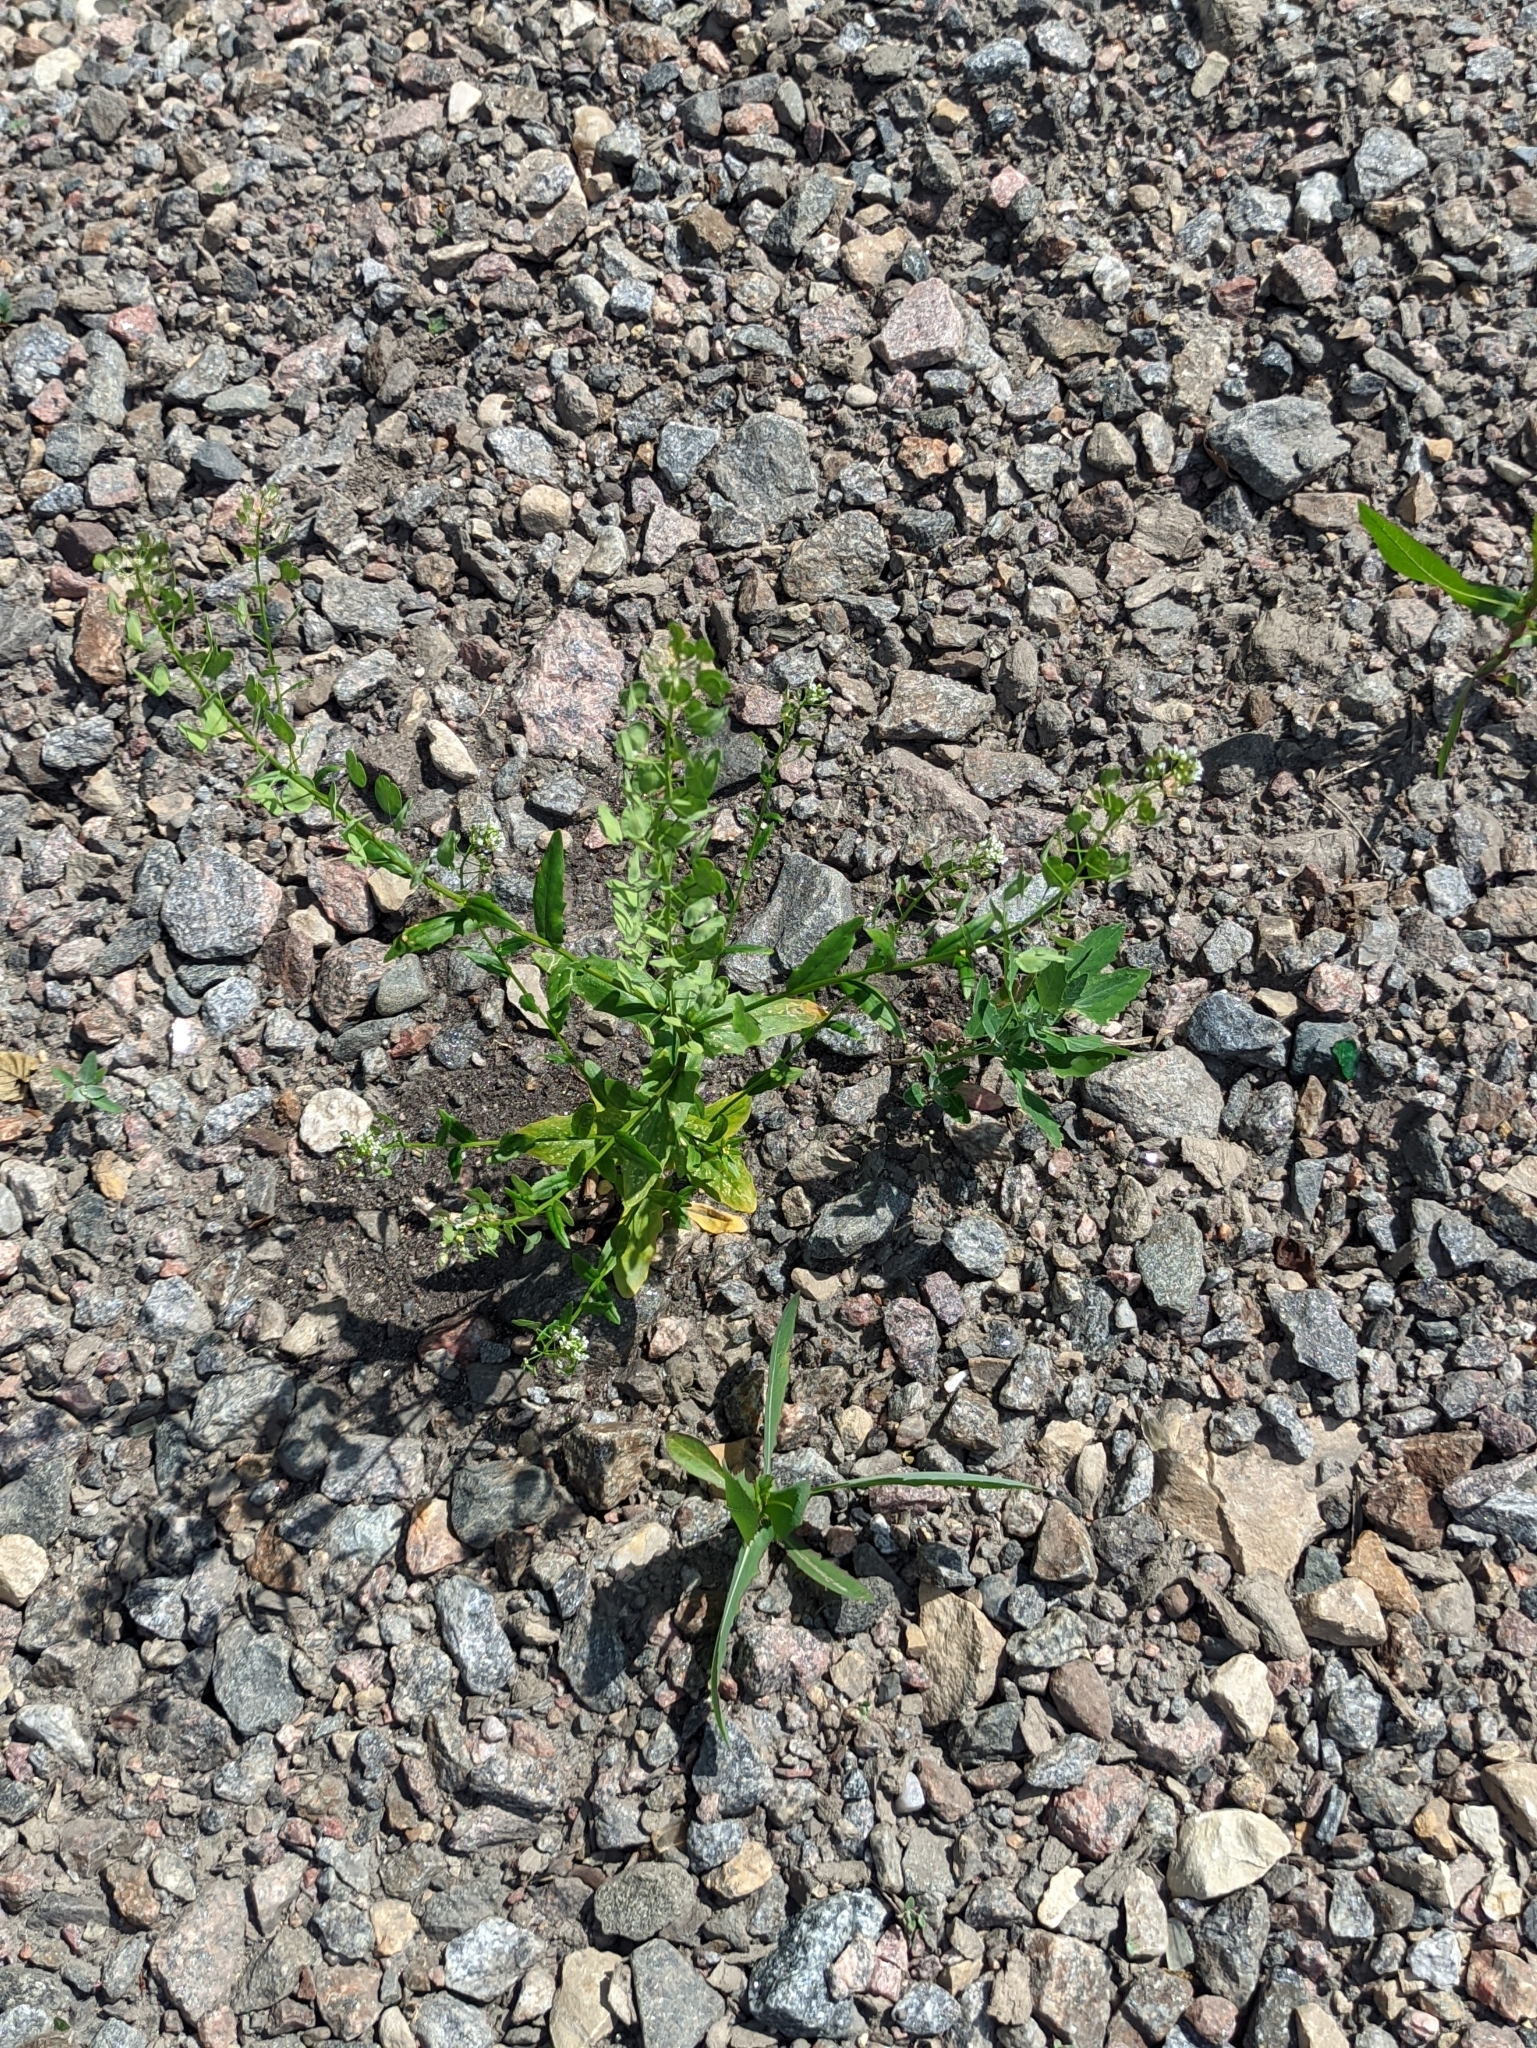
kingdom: Plantae
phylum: Tracheophyta
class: Magnoliopsida
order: Brassicales
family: Brassicaceae
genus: Thlaspi
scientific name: Thlaspi arvense
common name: Field pennycress
